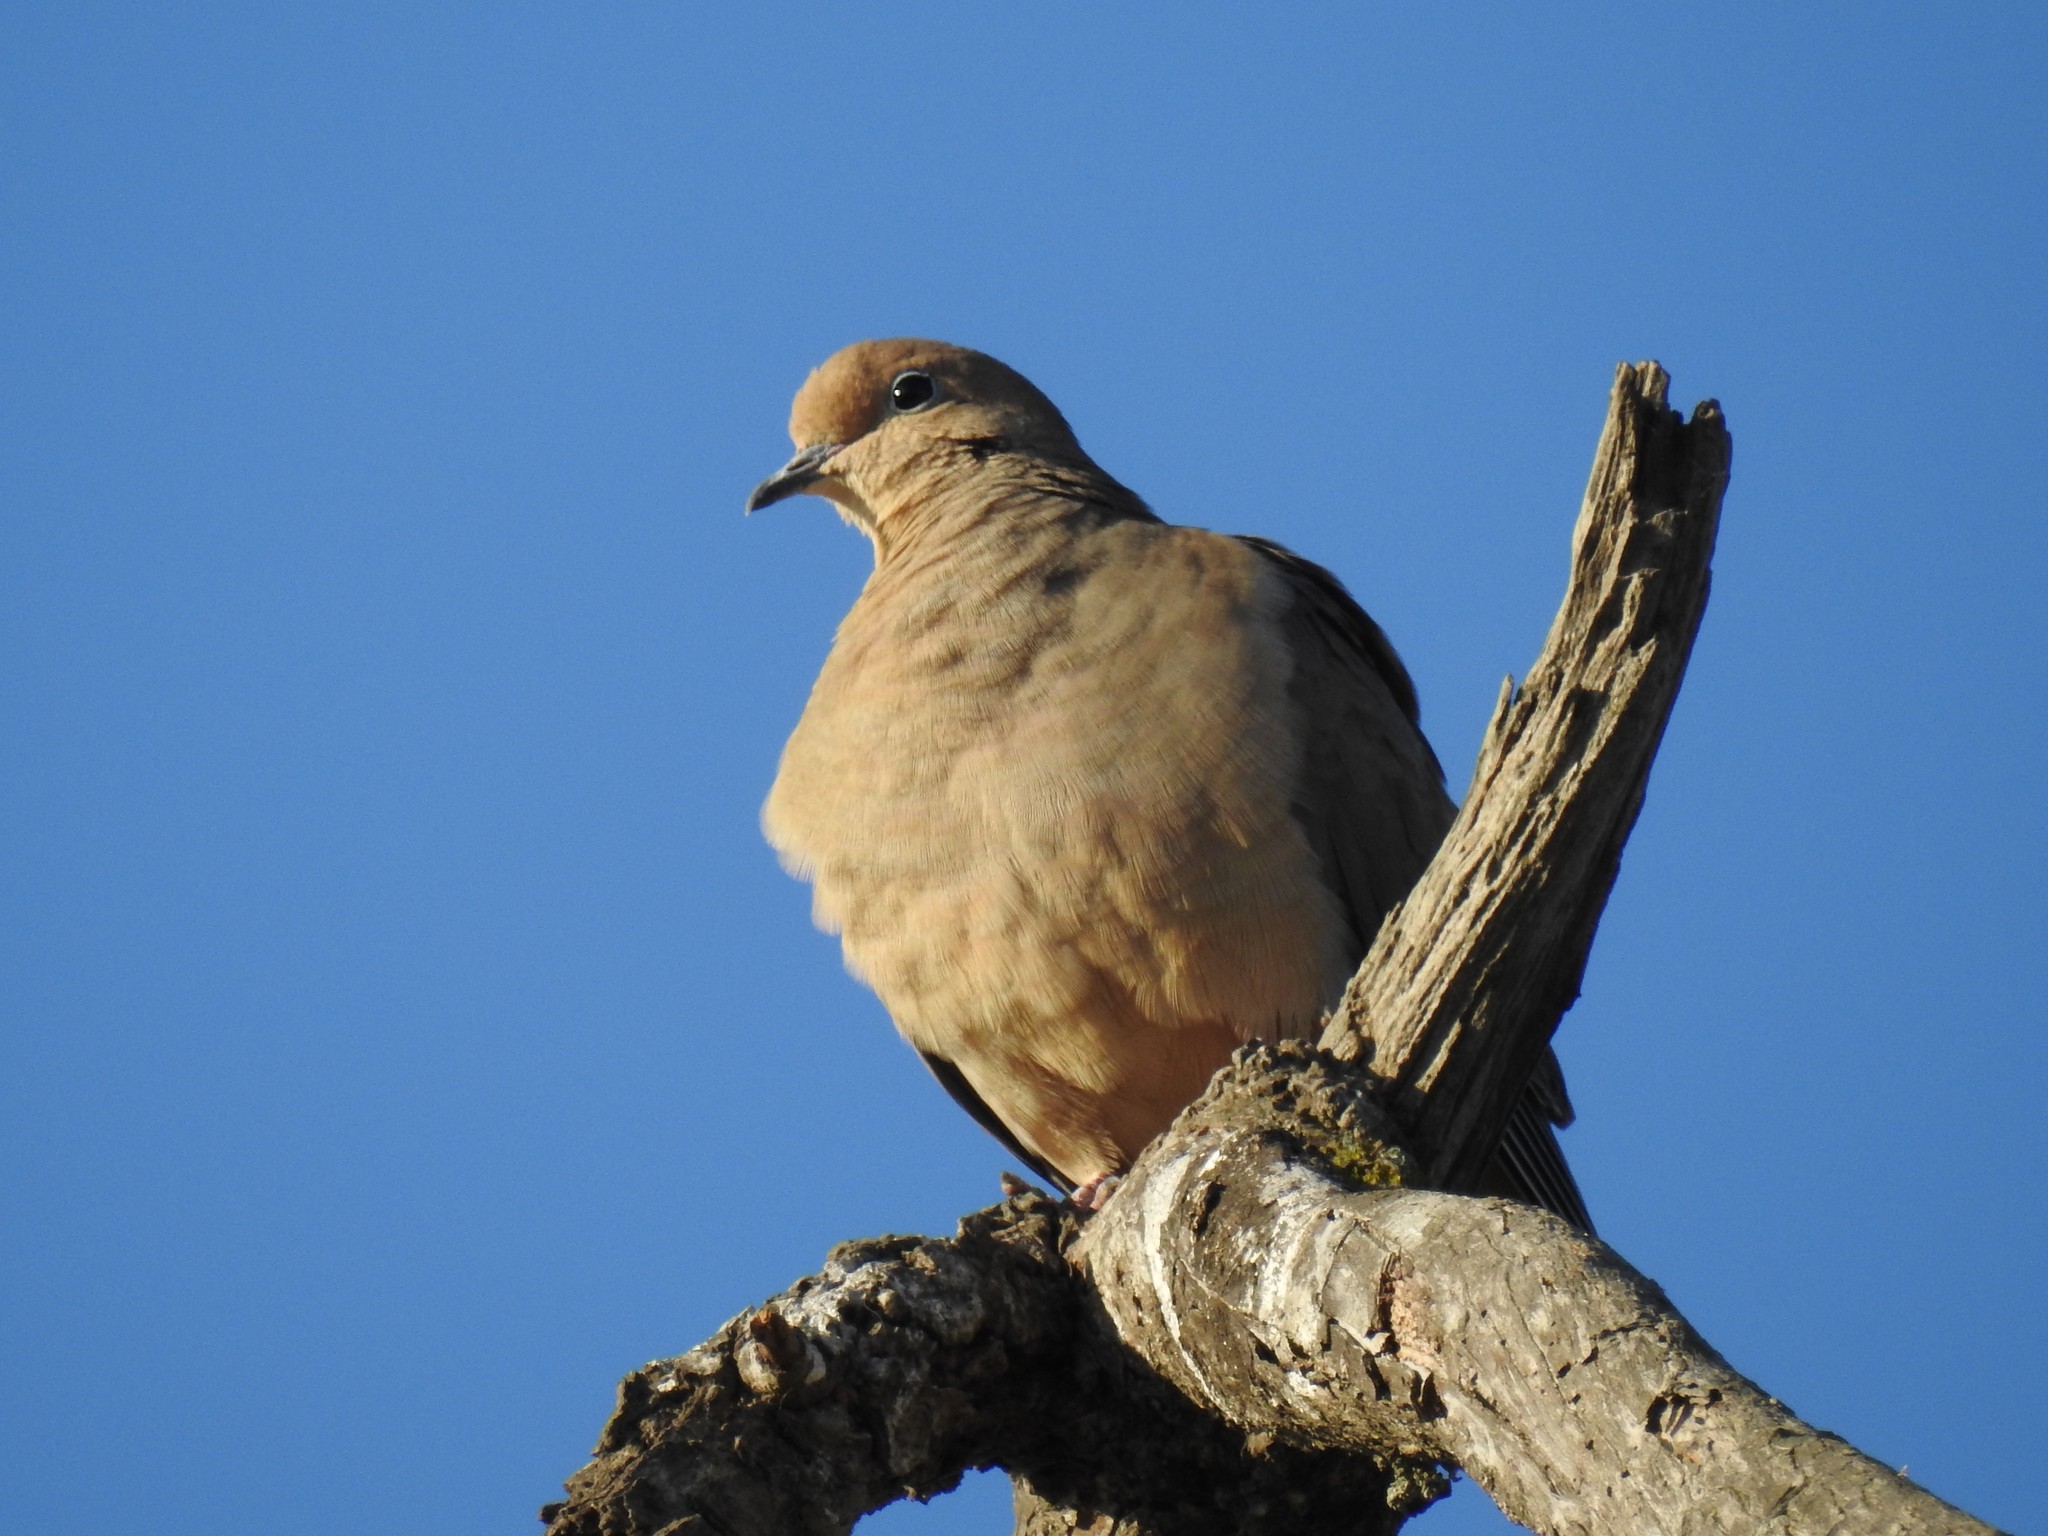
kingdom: Animalia
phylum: Chordata
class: Aves
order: Columbiformes
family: Columbidae
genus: Zenaida
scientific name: Zenaida macroura
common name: Mourning dove
